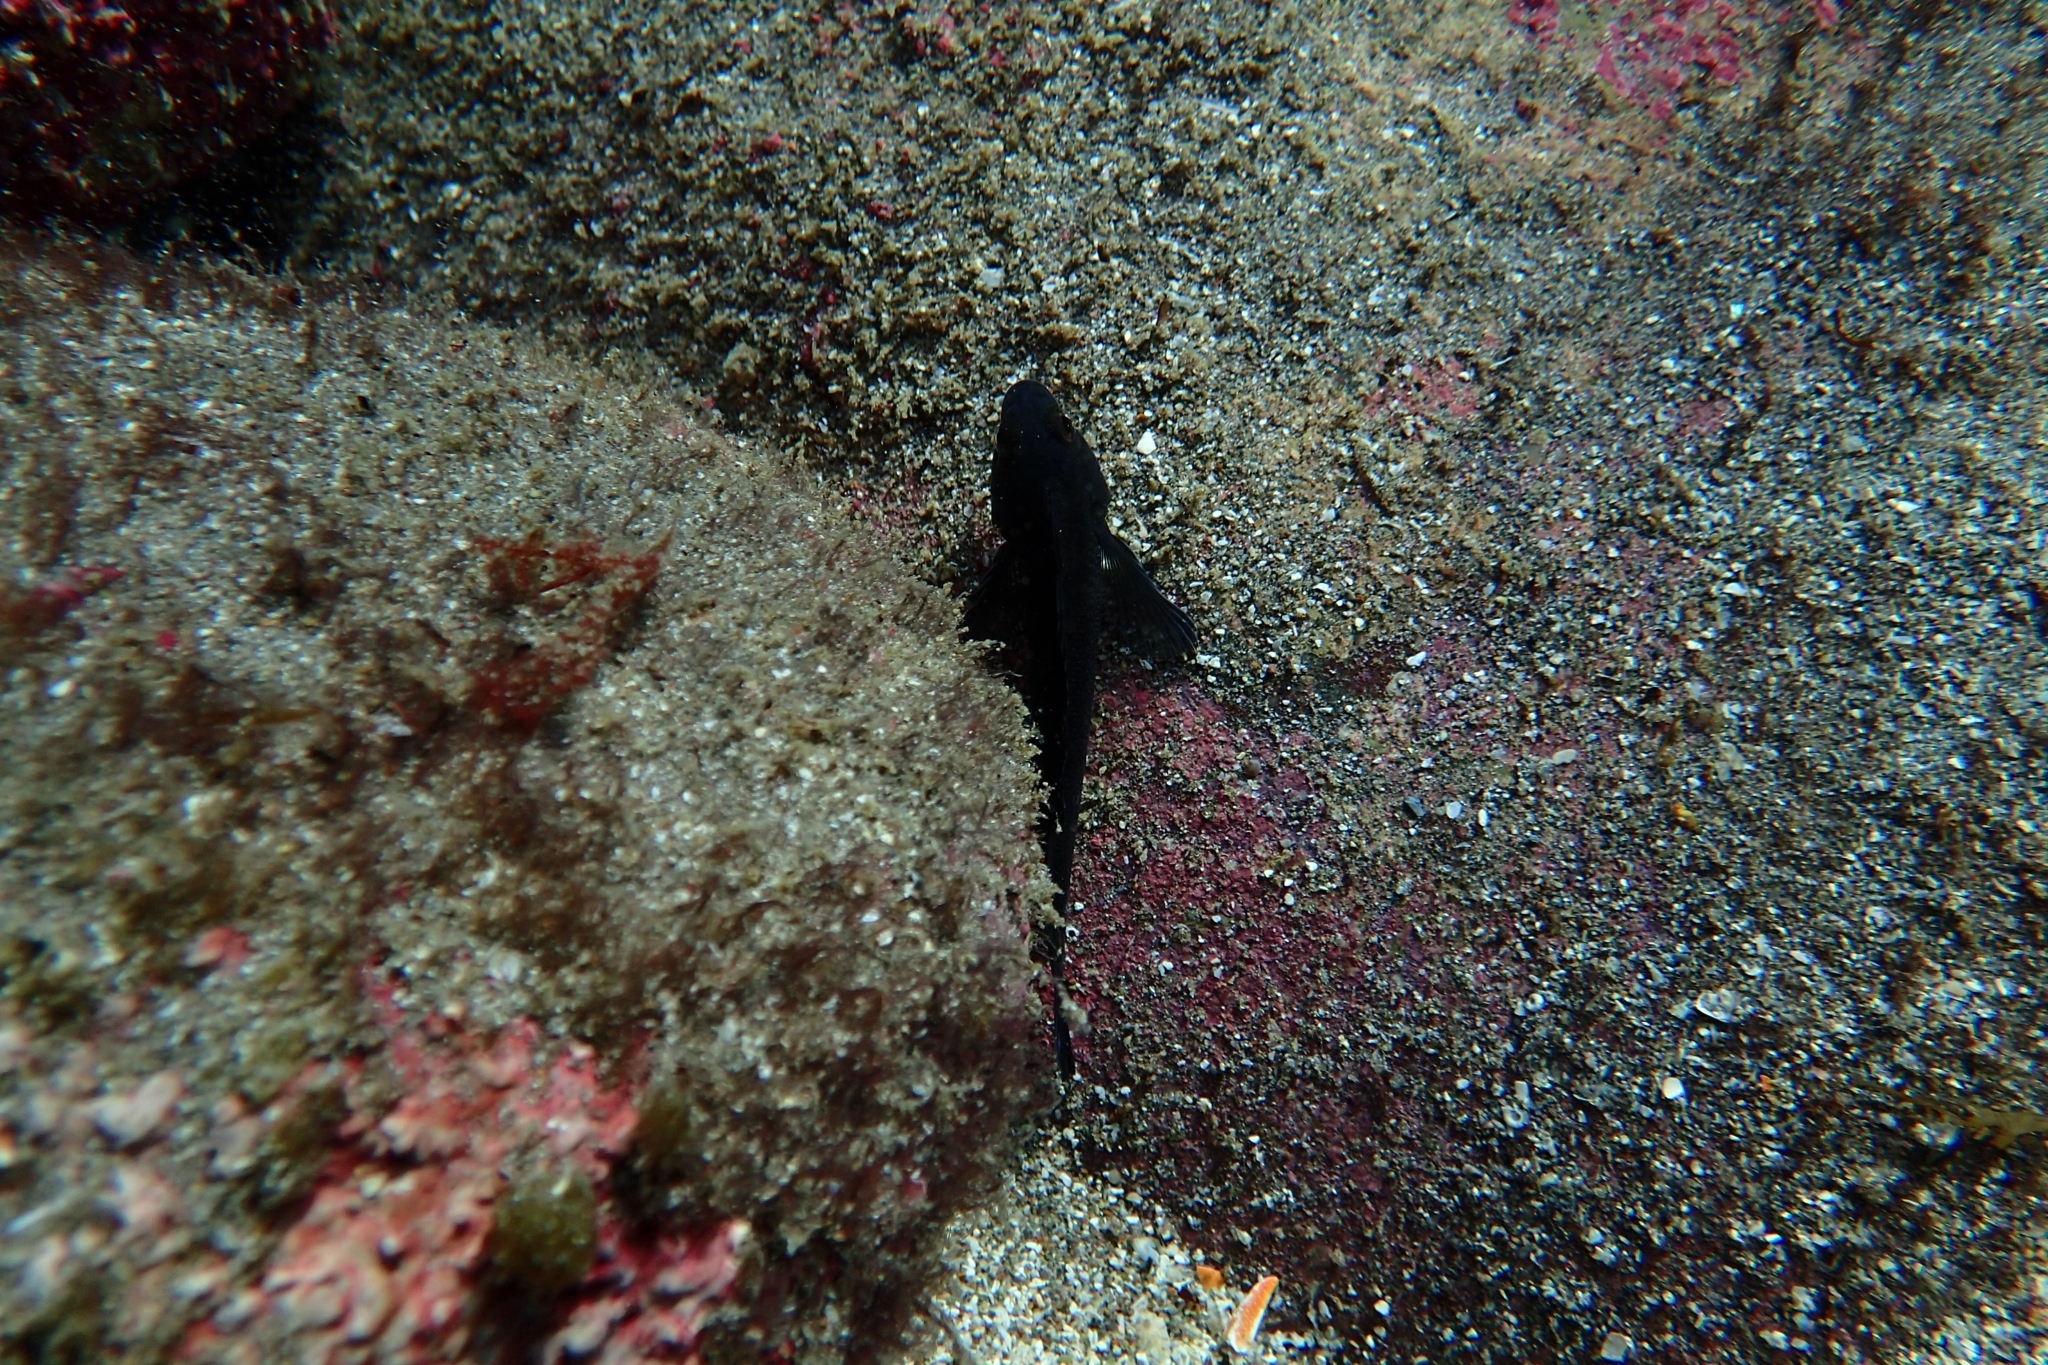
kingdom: Animalia
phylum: Chordata
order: Perciformes
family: Tripterygiidae
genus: Forsterygion
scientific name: Forsterygion lapillum
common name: Common triplefin
